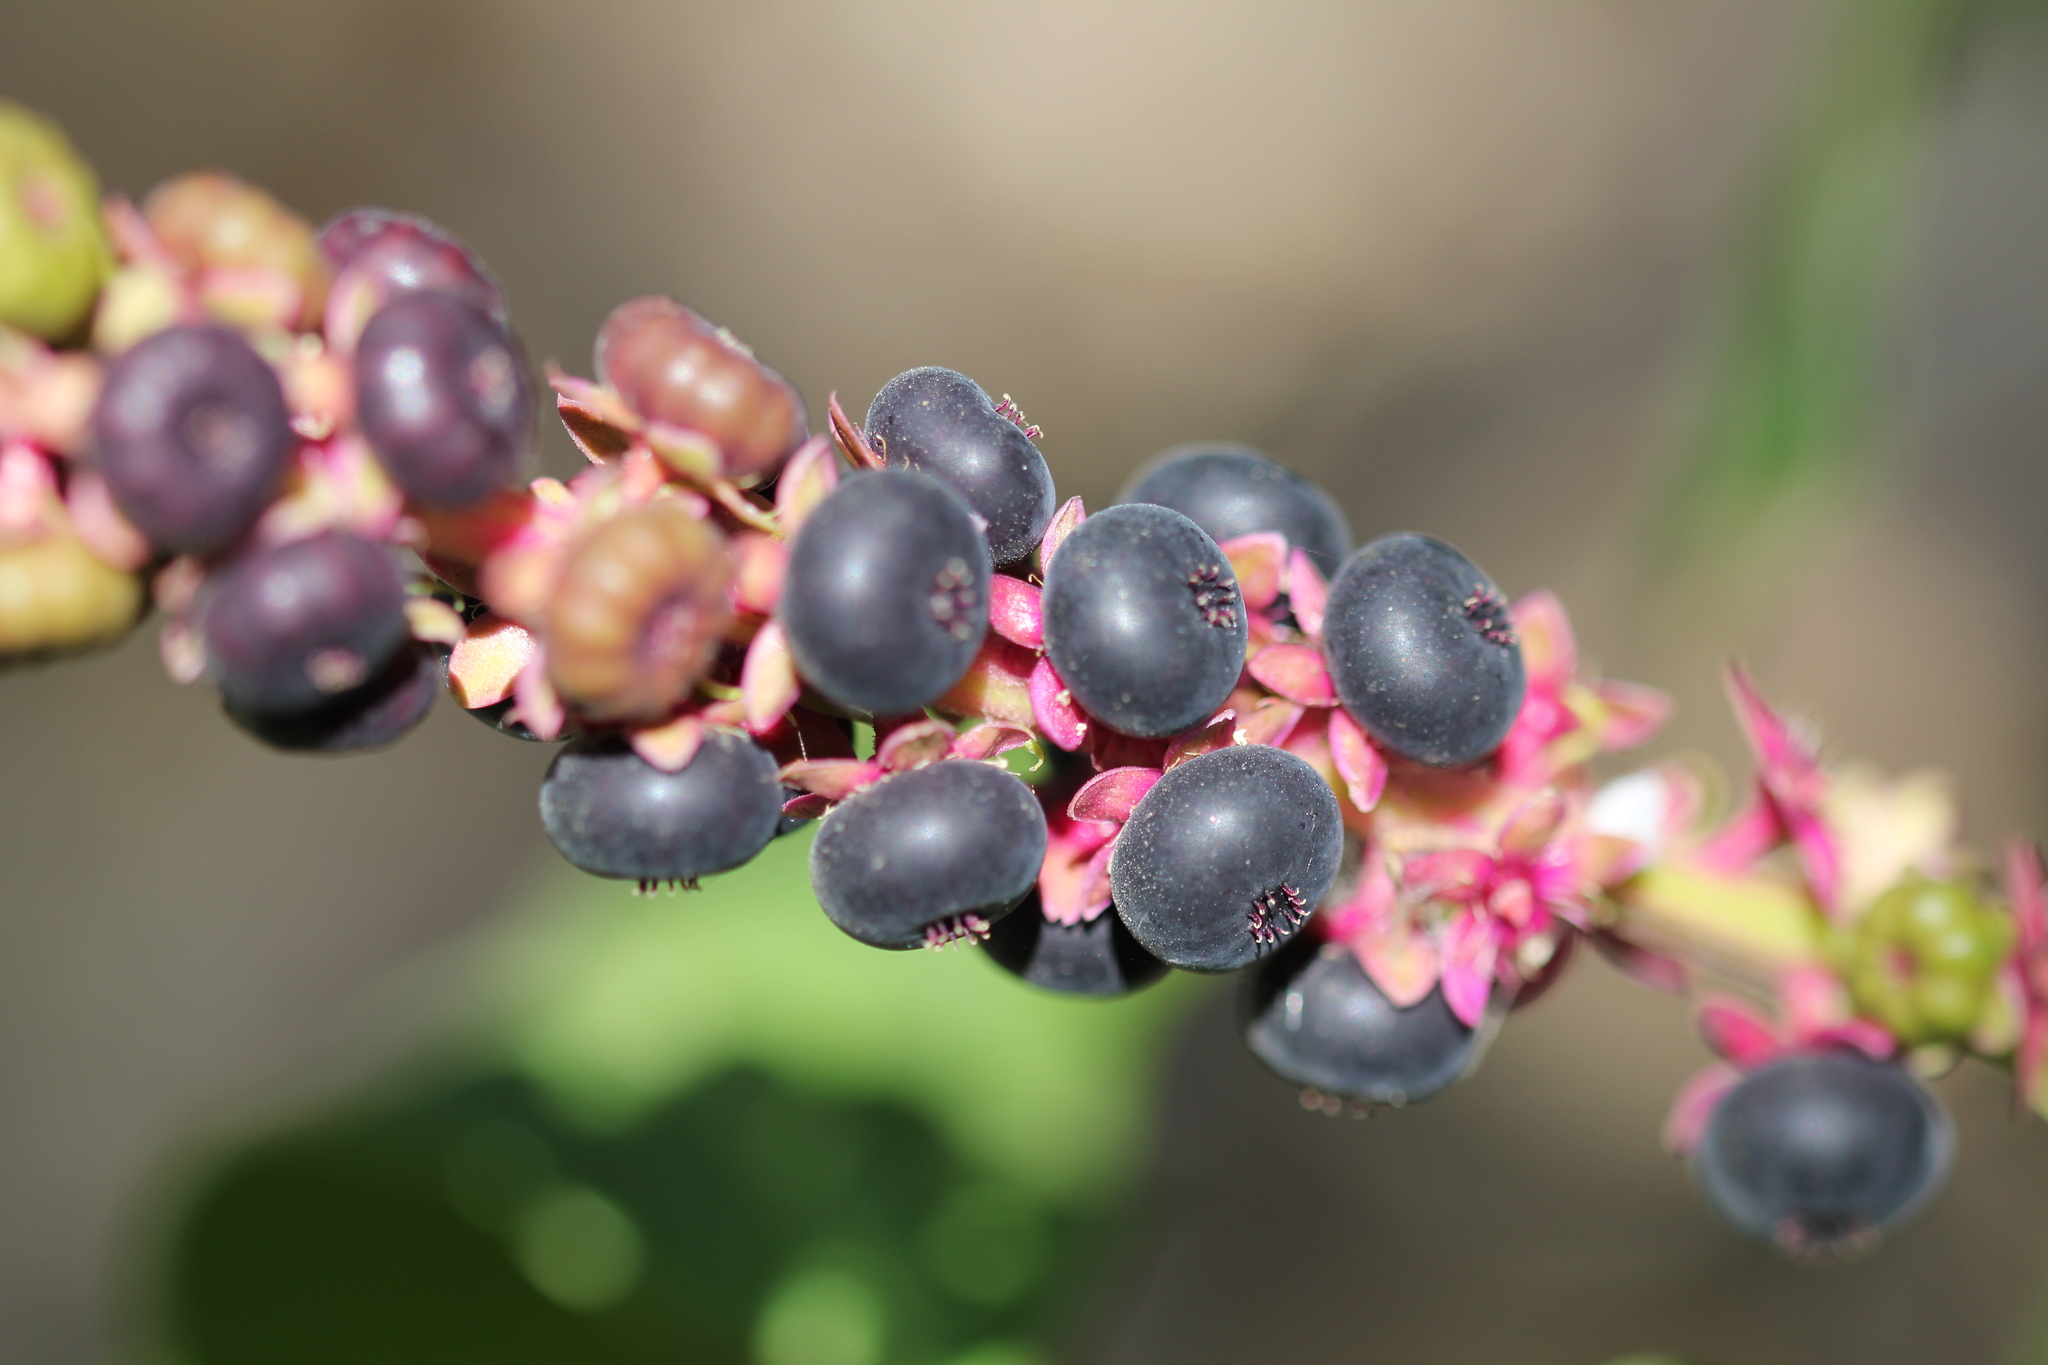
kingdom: Plantae
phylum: Tracheophyta
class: Magnoliopsida
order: Caryophyllales
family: Phytolaccaceae
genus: Phytolacca
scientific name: Phytolacca icosandra
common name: Button pokeweed
